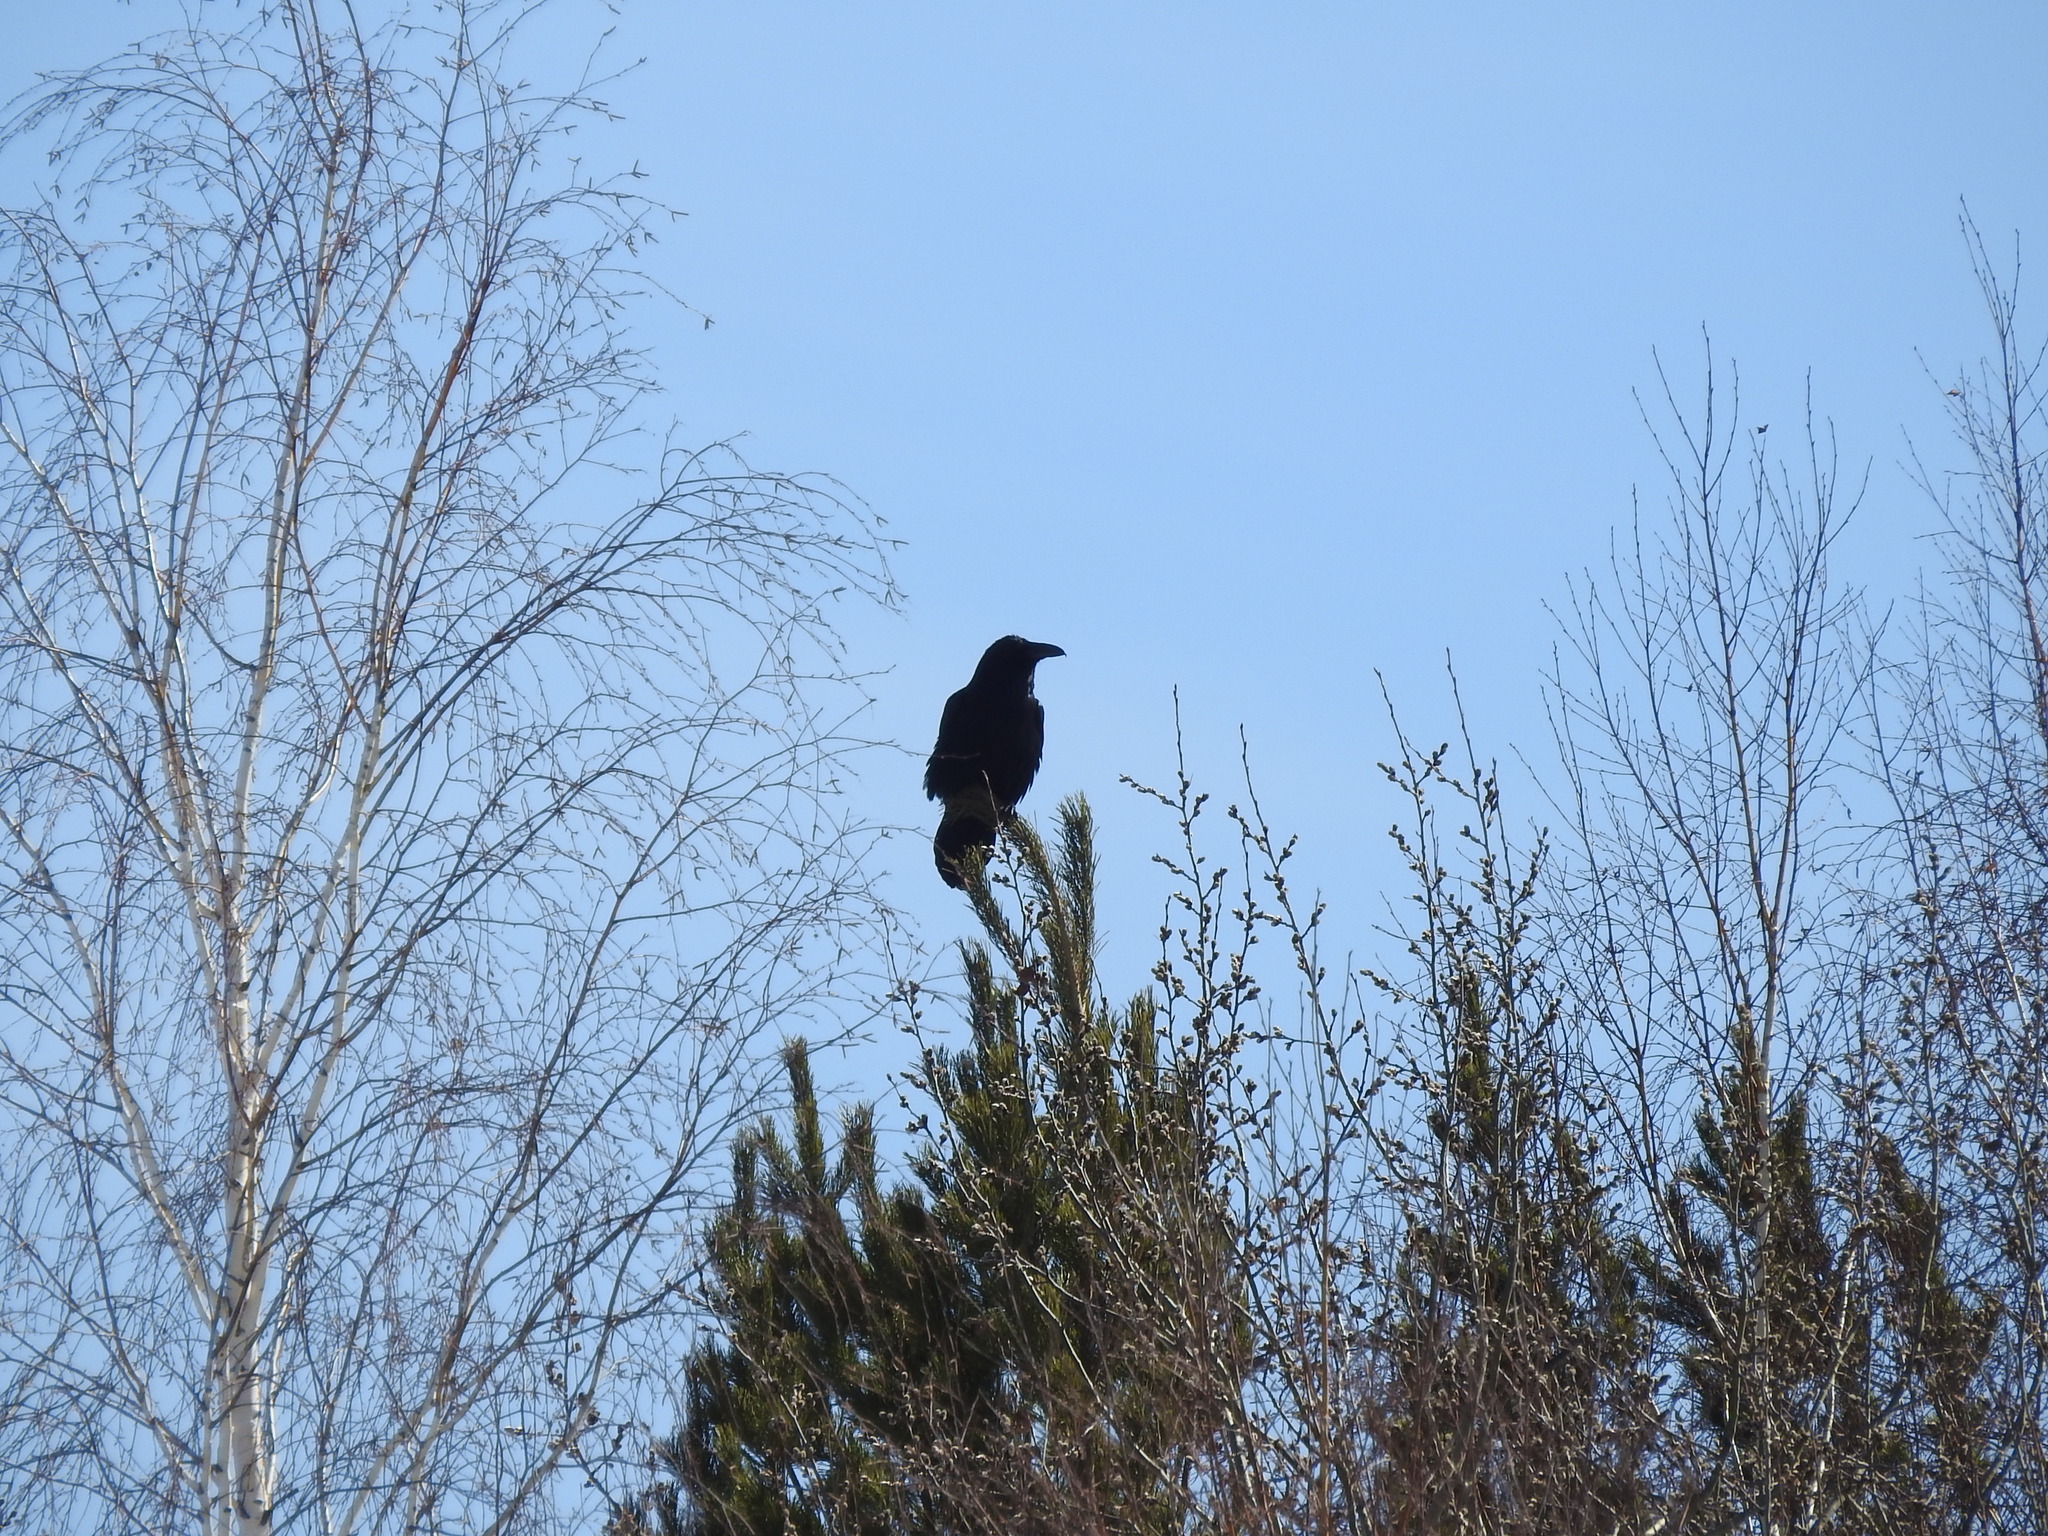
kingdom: Animalia
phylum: Chordata
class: Aves
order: Passeriformes
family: Corvidae
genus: Corvus
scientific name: Corvus corax
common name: Common raven
